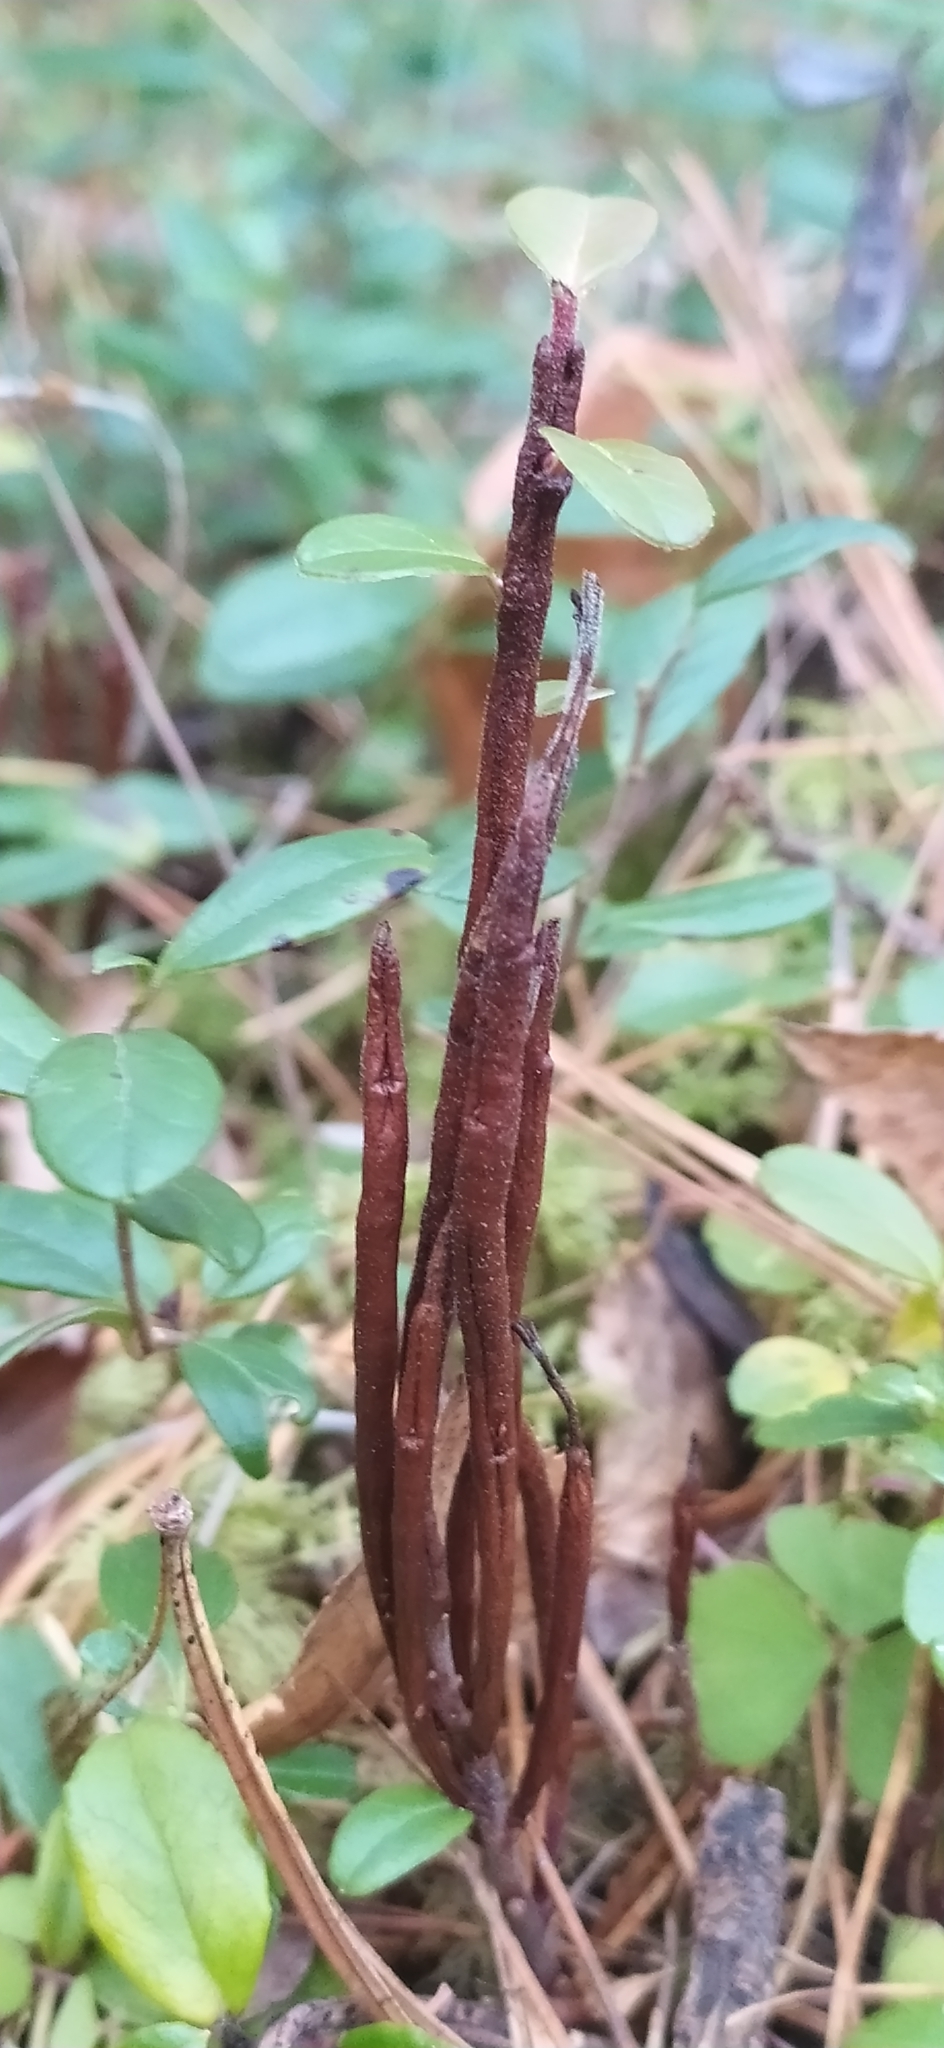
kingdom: Fungi
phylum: Basidiomycota
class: Pucciniomycetes
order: Pucciniales
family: Pucciniastraceae
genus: Calyptospora
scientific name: Calyptospora columnaris
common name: Huckleberry broom rust fungus
